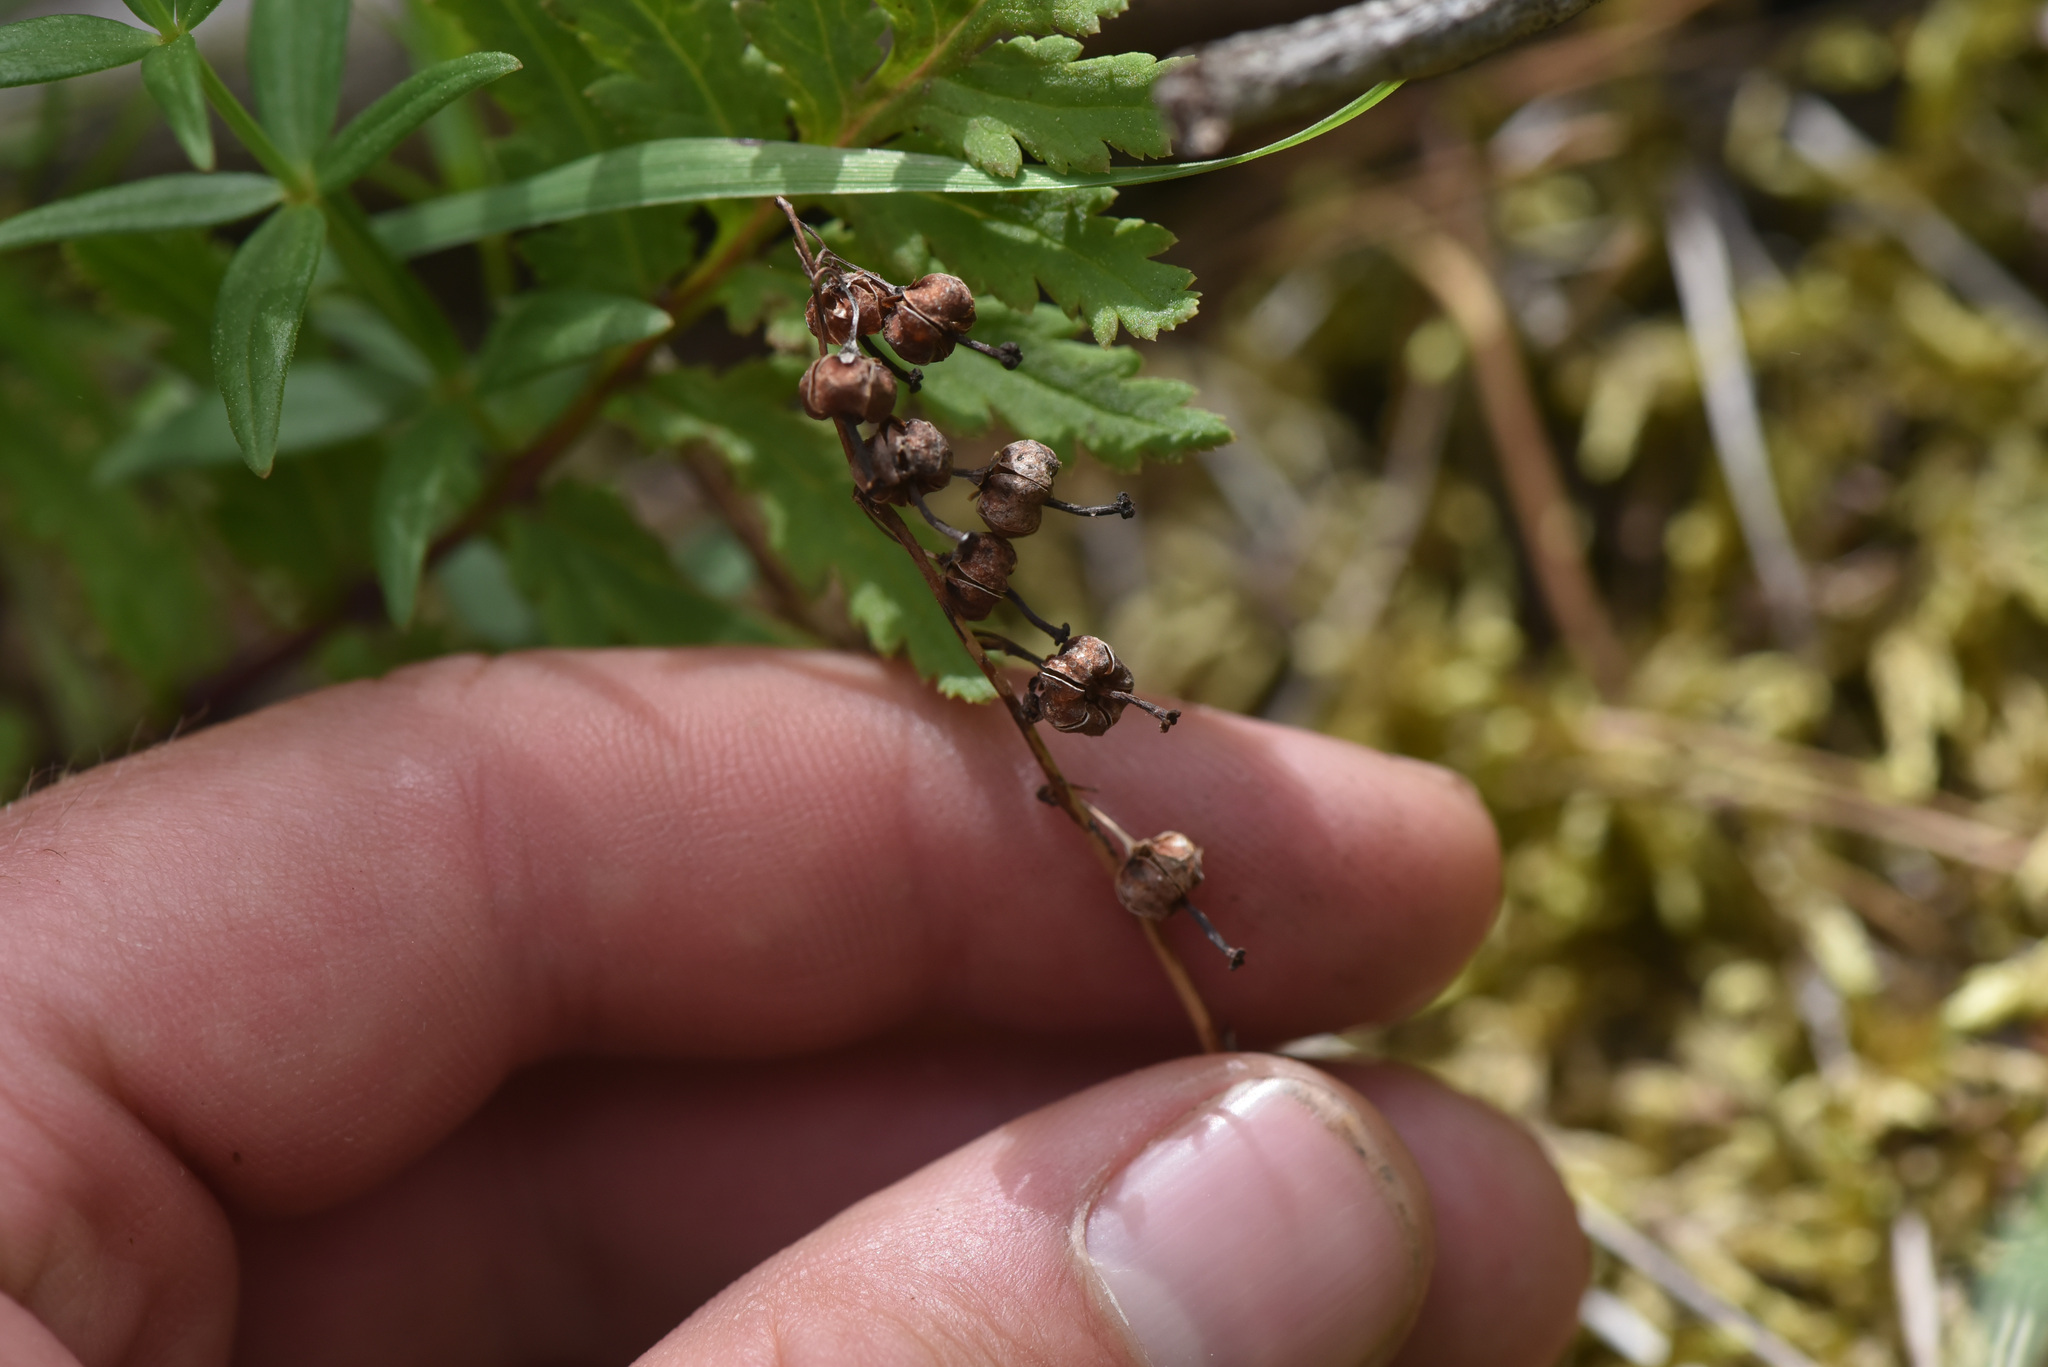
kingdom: Plantae
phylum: Tracheophyta
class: Magnoliopsida
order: Ericales
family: Ericaceae
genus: Orthilia
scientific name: Orthilia secunda
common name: One-sided orthilia
